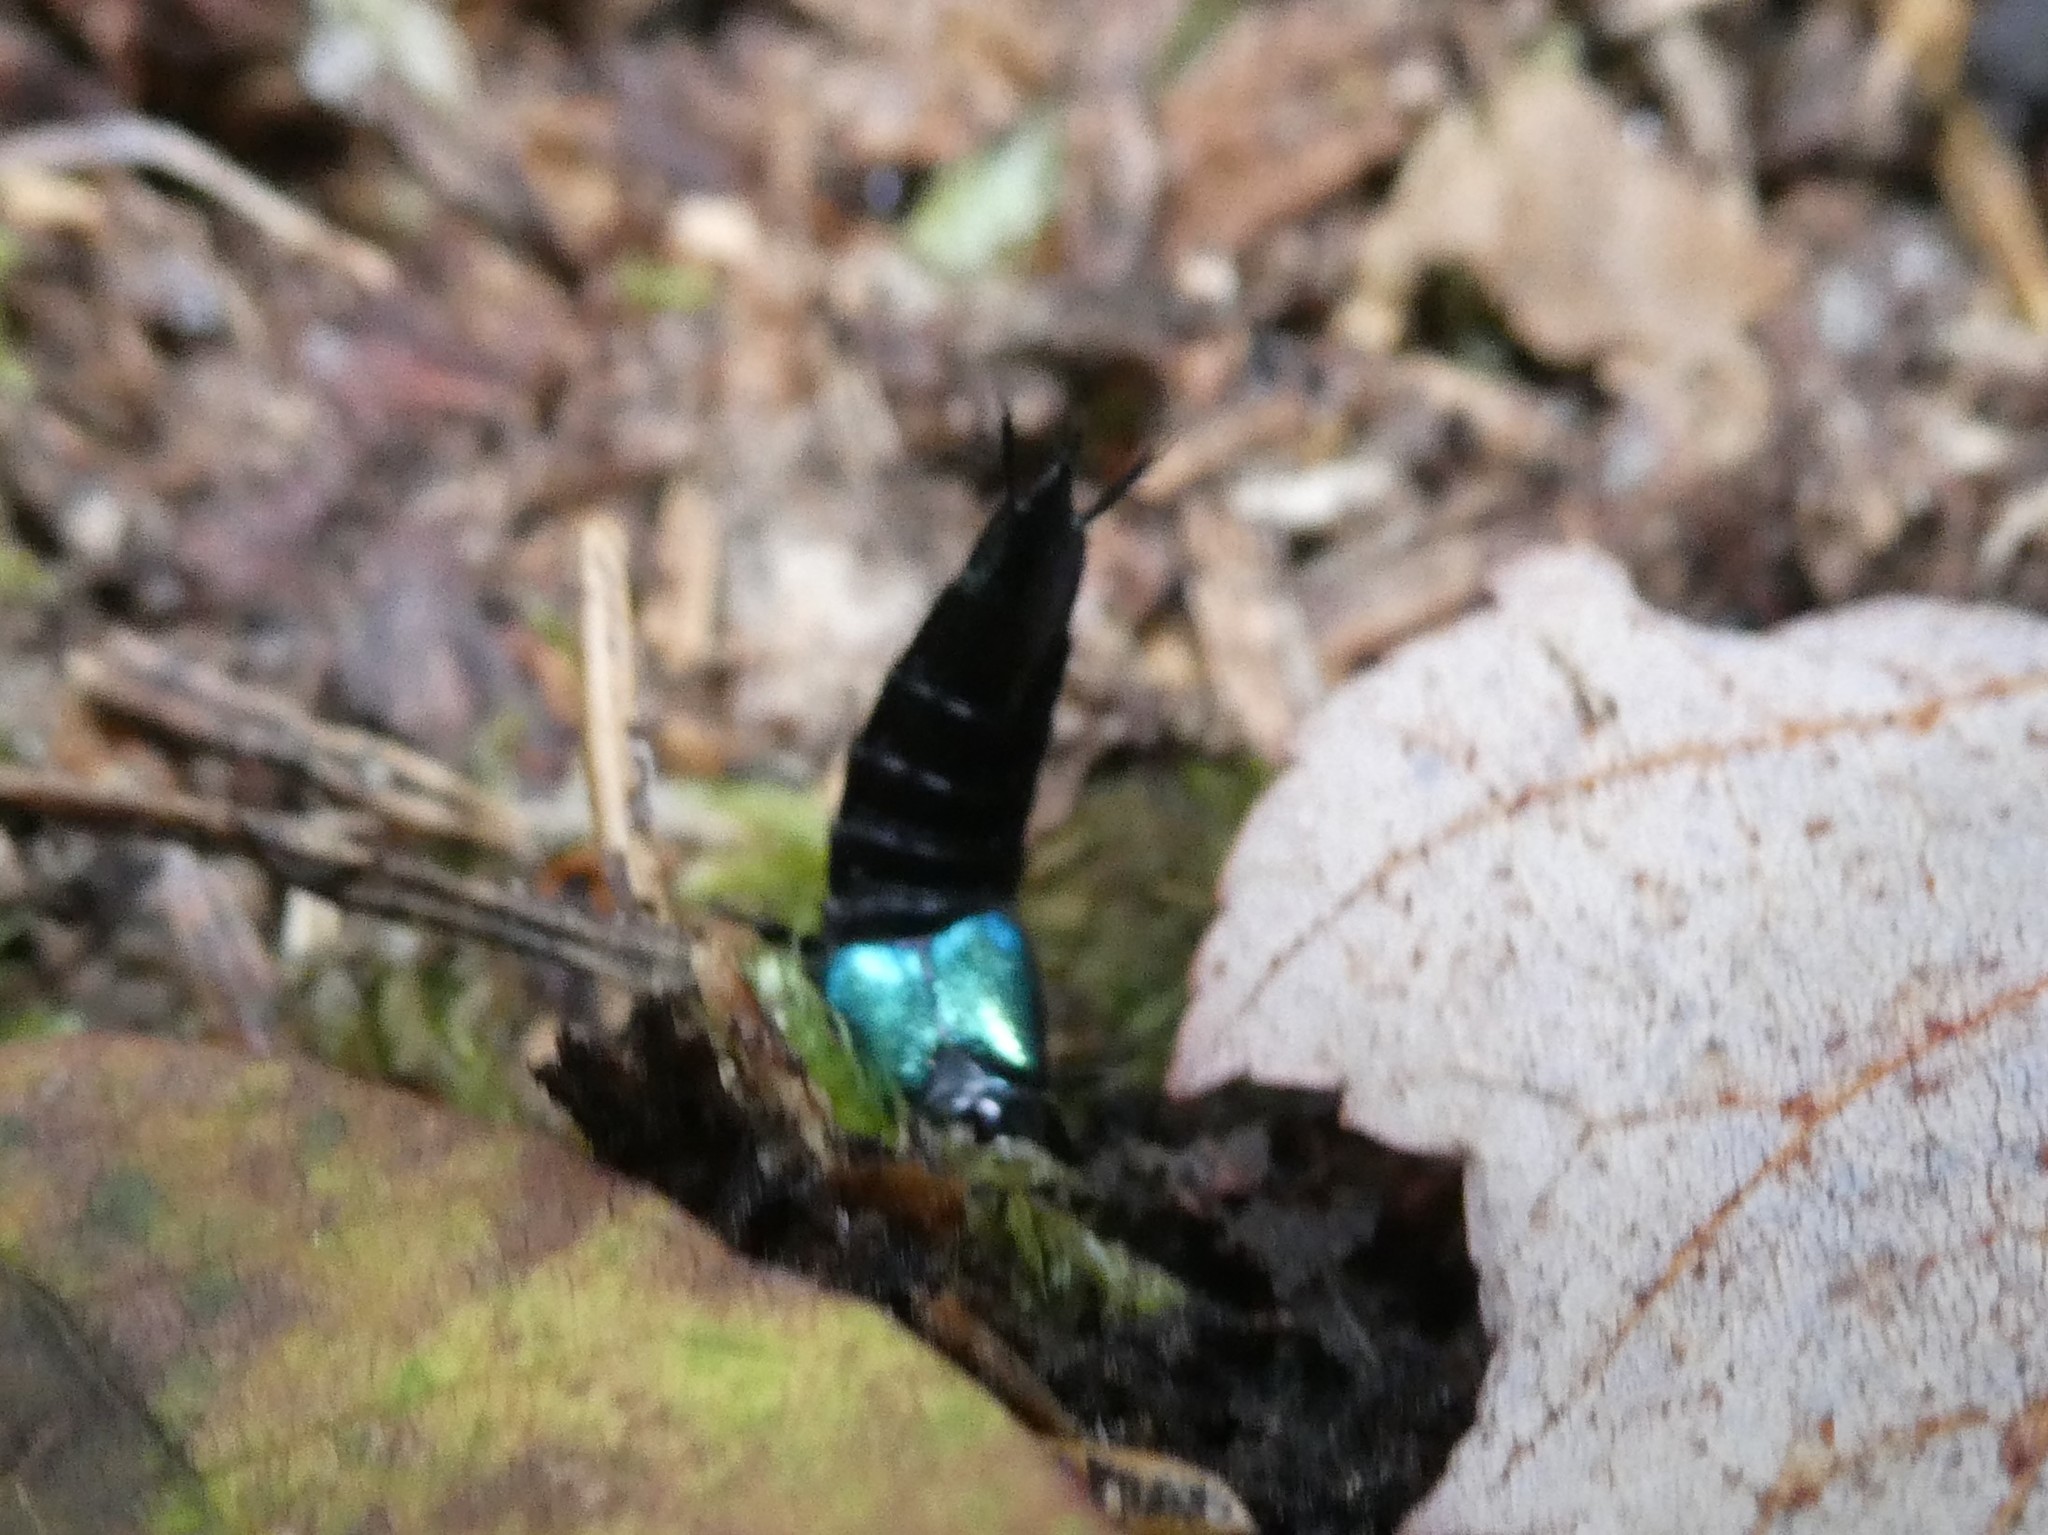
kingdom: Animalia
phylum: Arthropoda
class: Insecta
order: Coleoptera
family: Staphylinidae
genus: Philonthus
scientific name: Philonthus caeruleipennis
